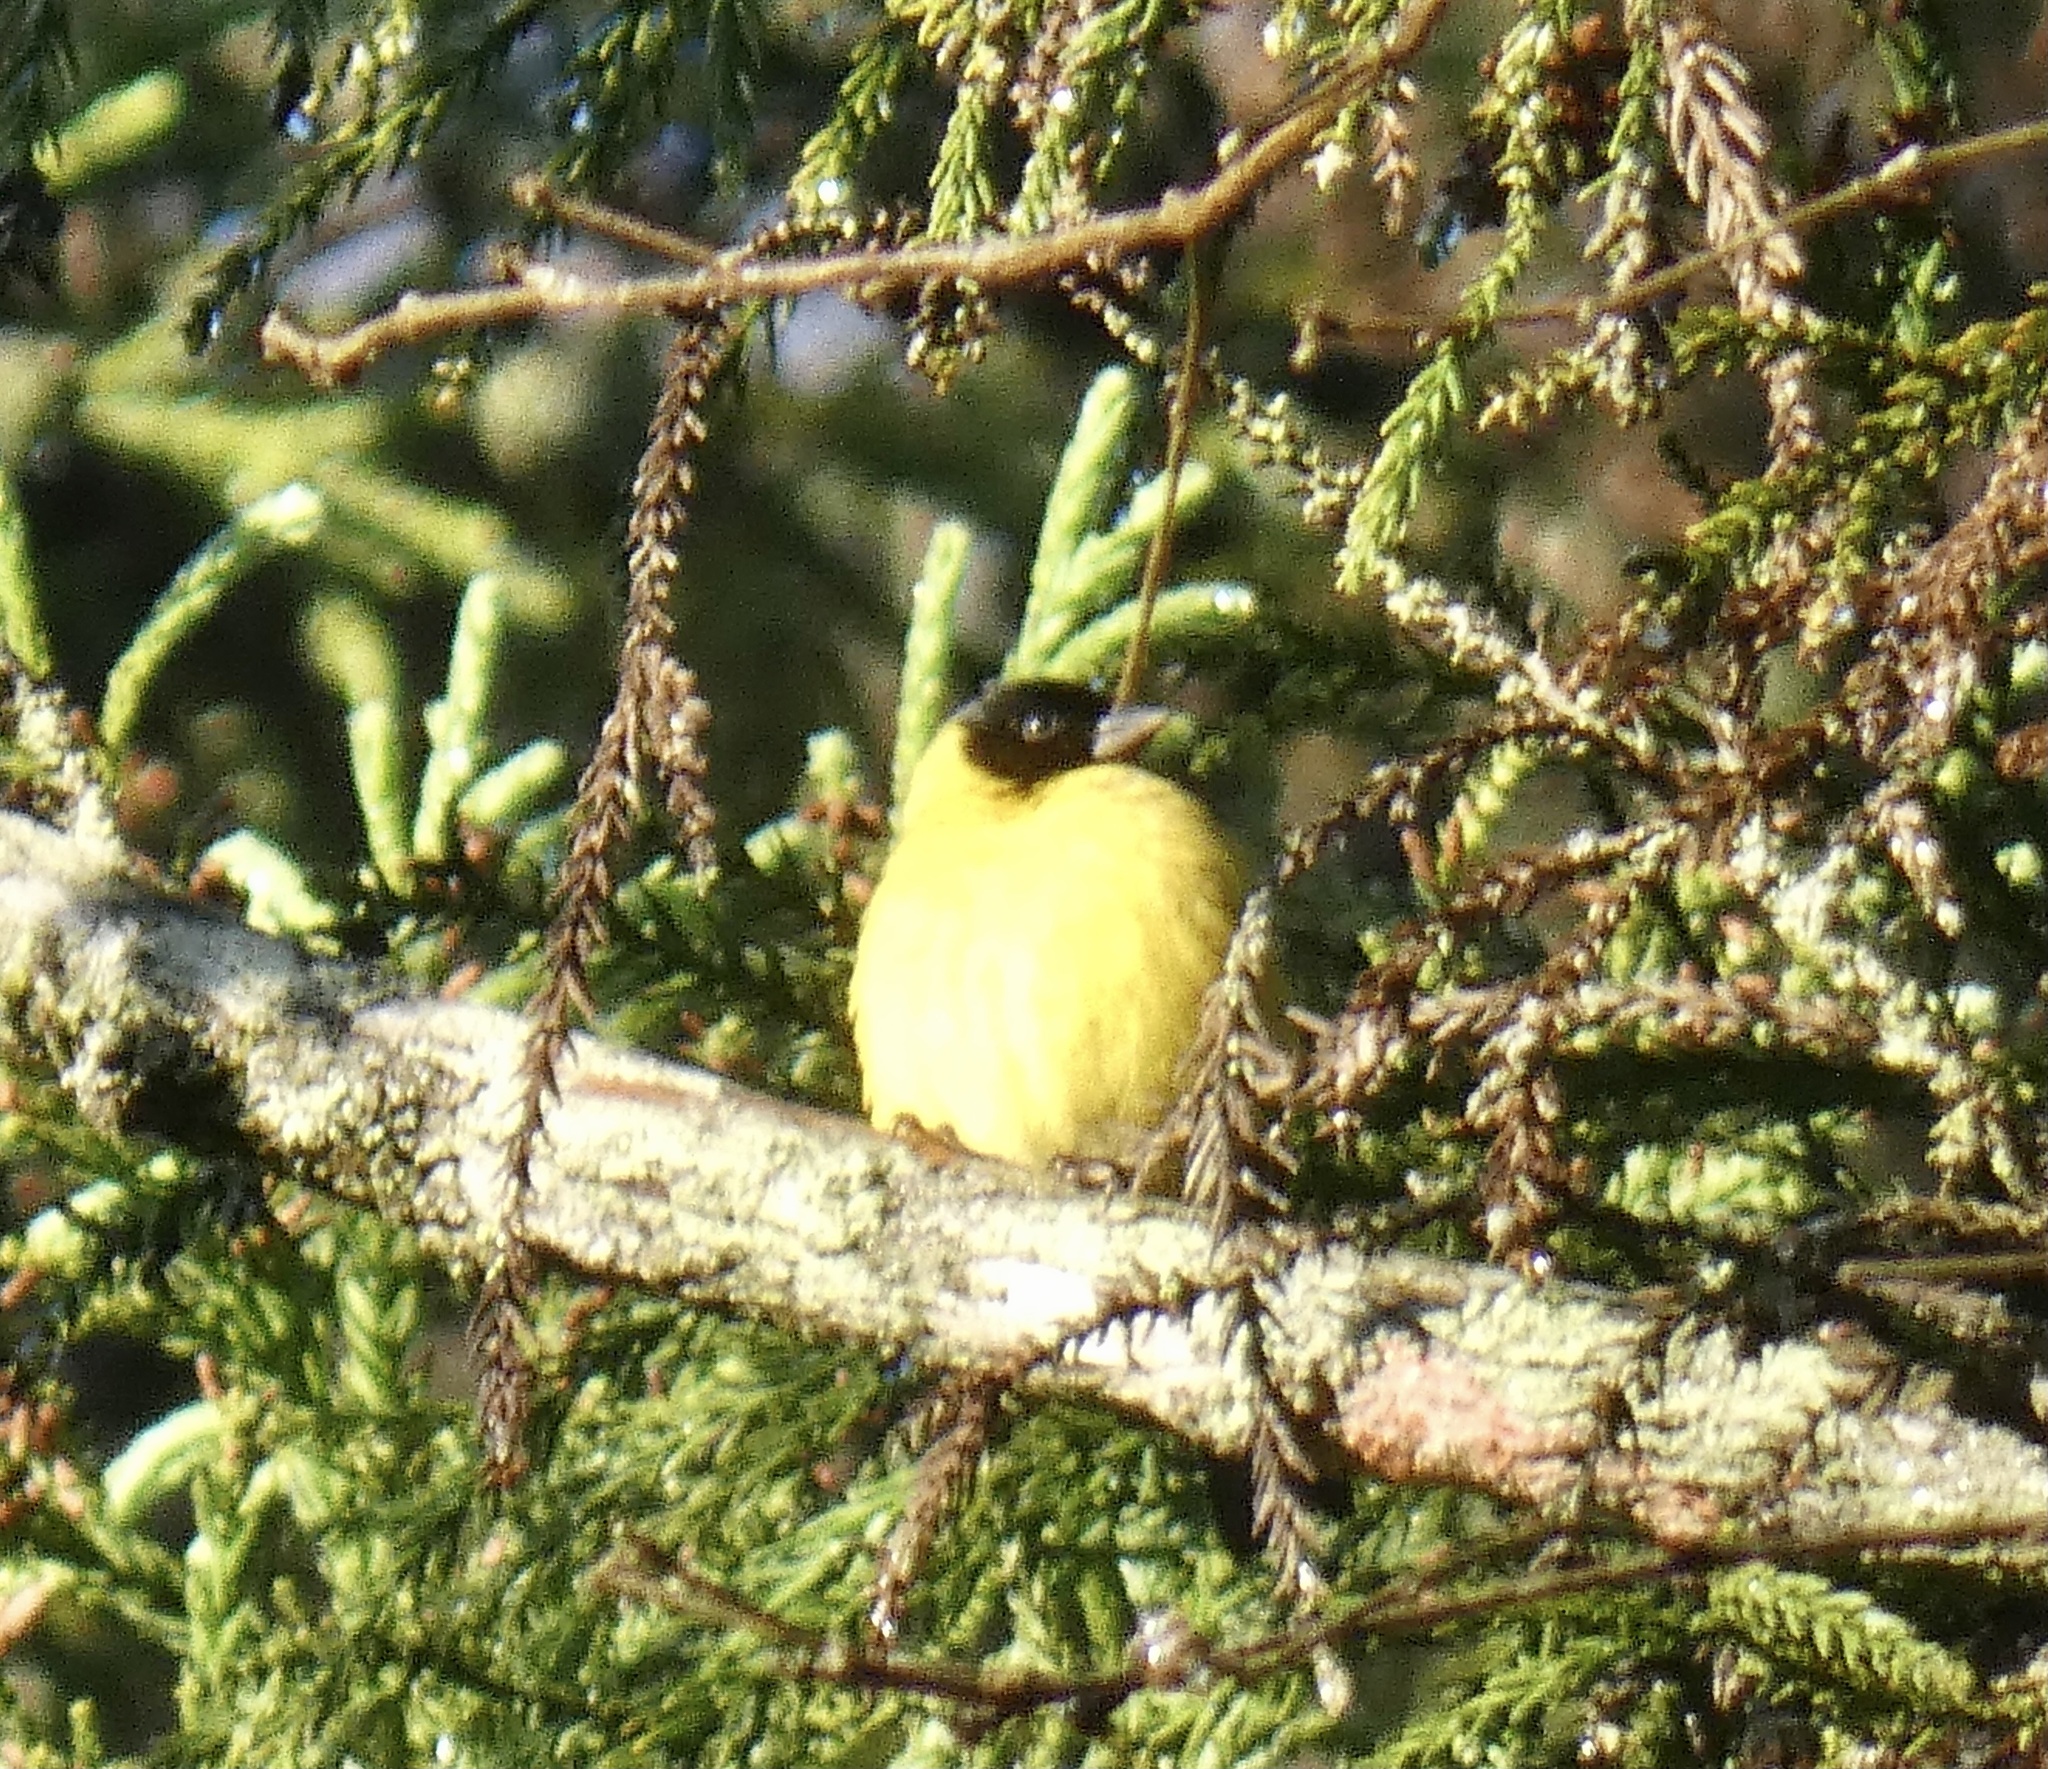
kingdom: Animalia
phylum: Chordata
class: Aves
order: Passeriformes
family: Fringillidae
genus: Spinus
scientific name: Spinus magellanicus
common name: Hooded siskin
